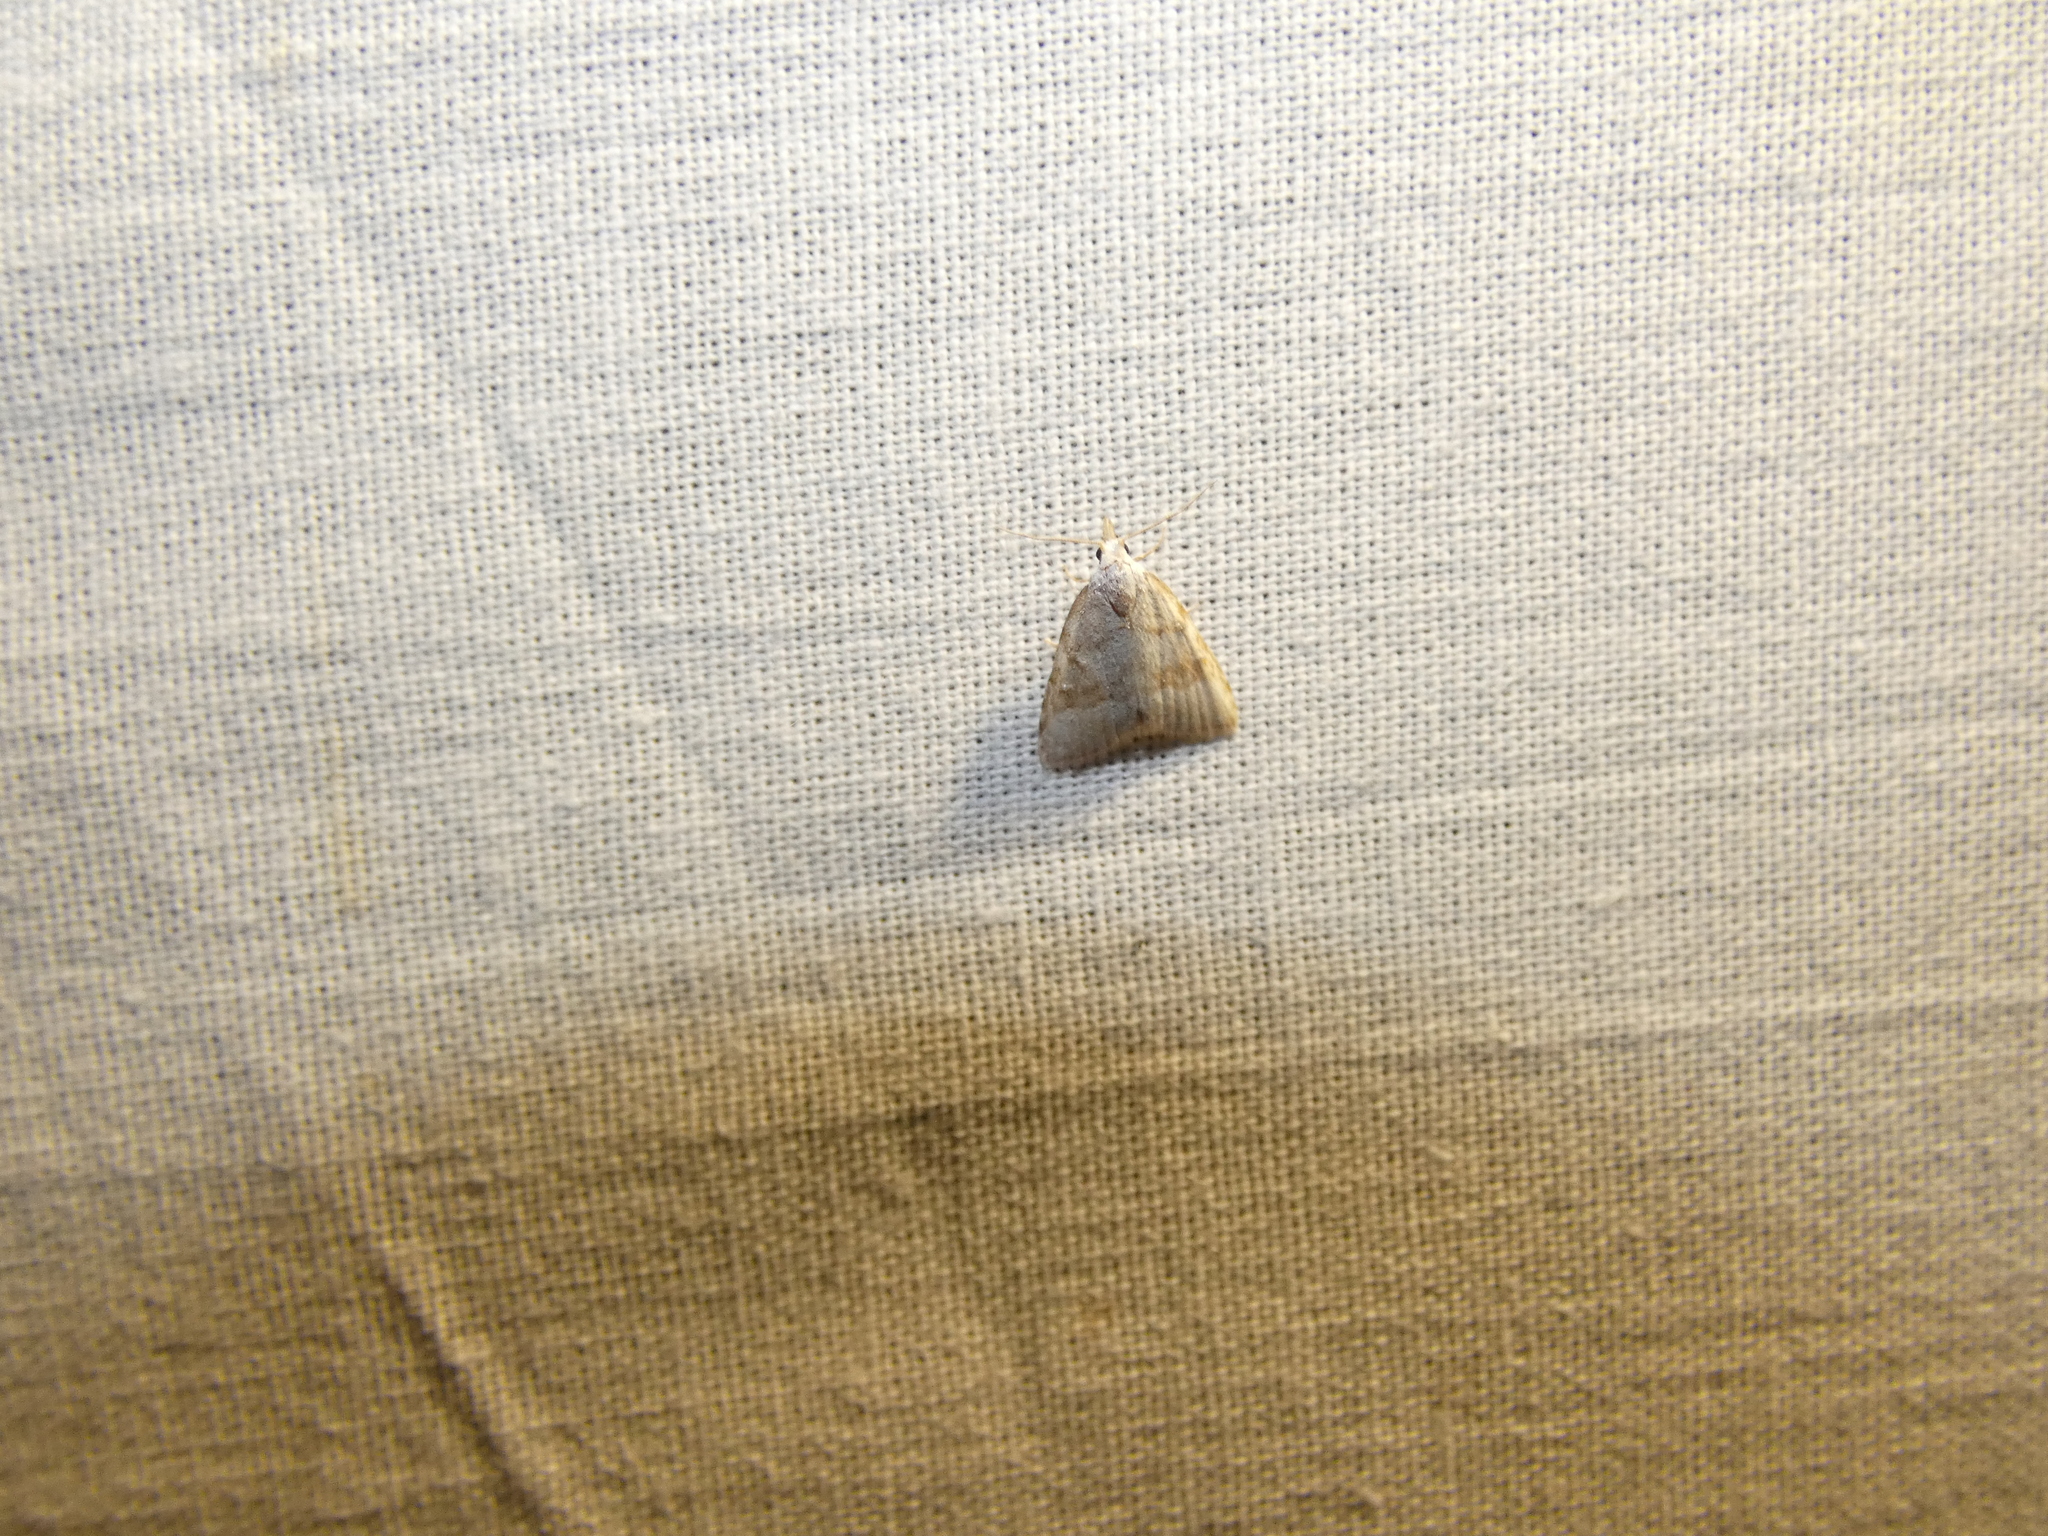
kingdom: Animalia
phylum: Arthropoda
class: Insecta
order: Lepidoptera
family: Nolidae
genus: Nola
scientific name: Nola aerugula
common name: Scarce black arches
